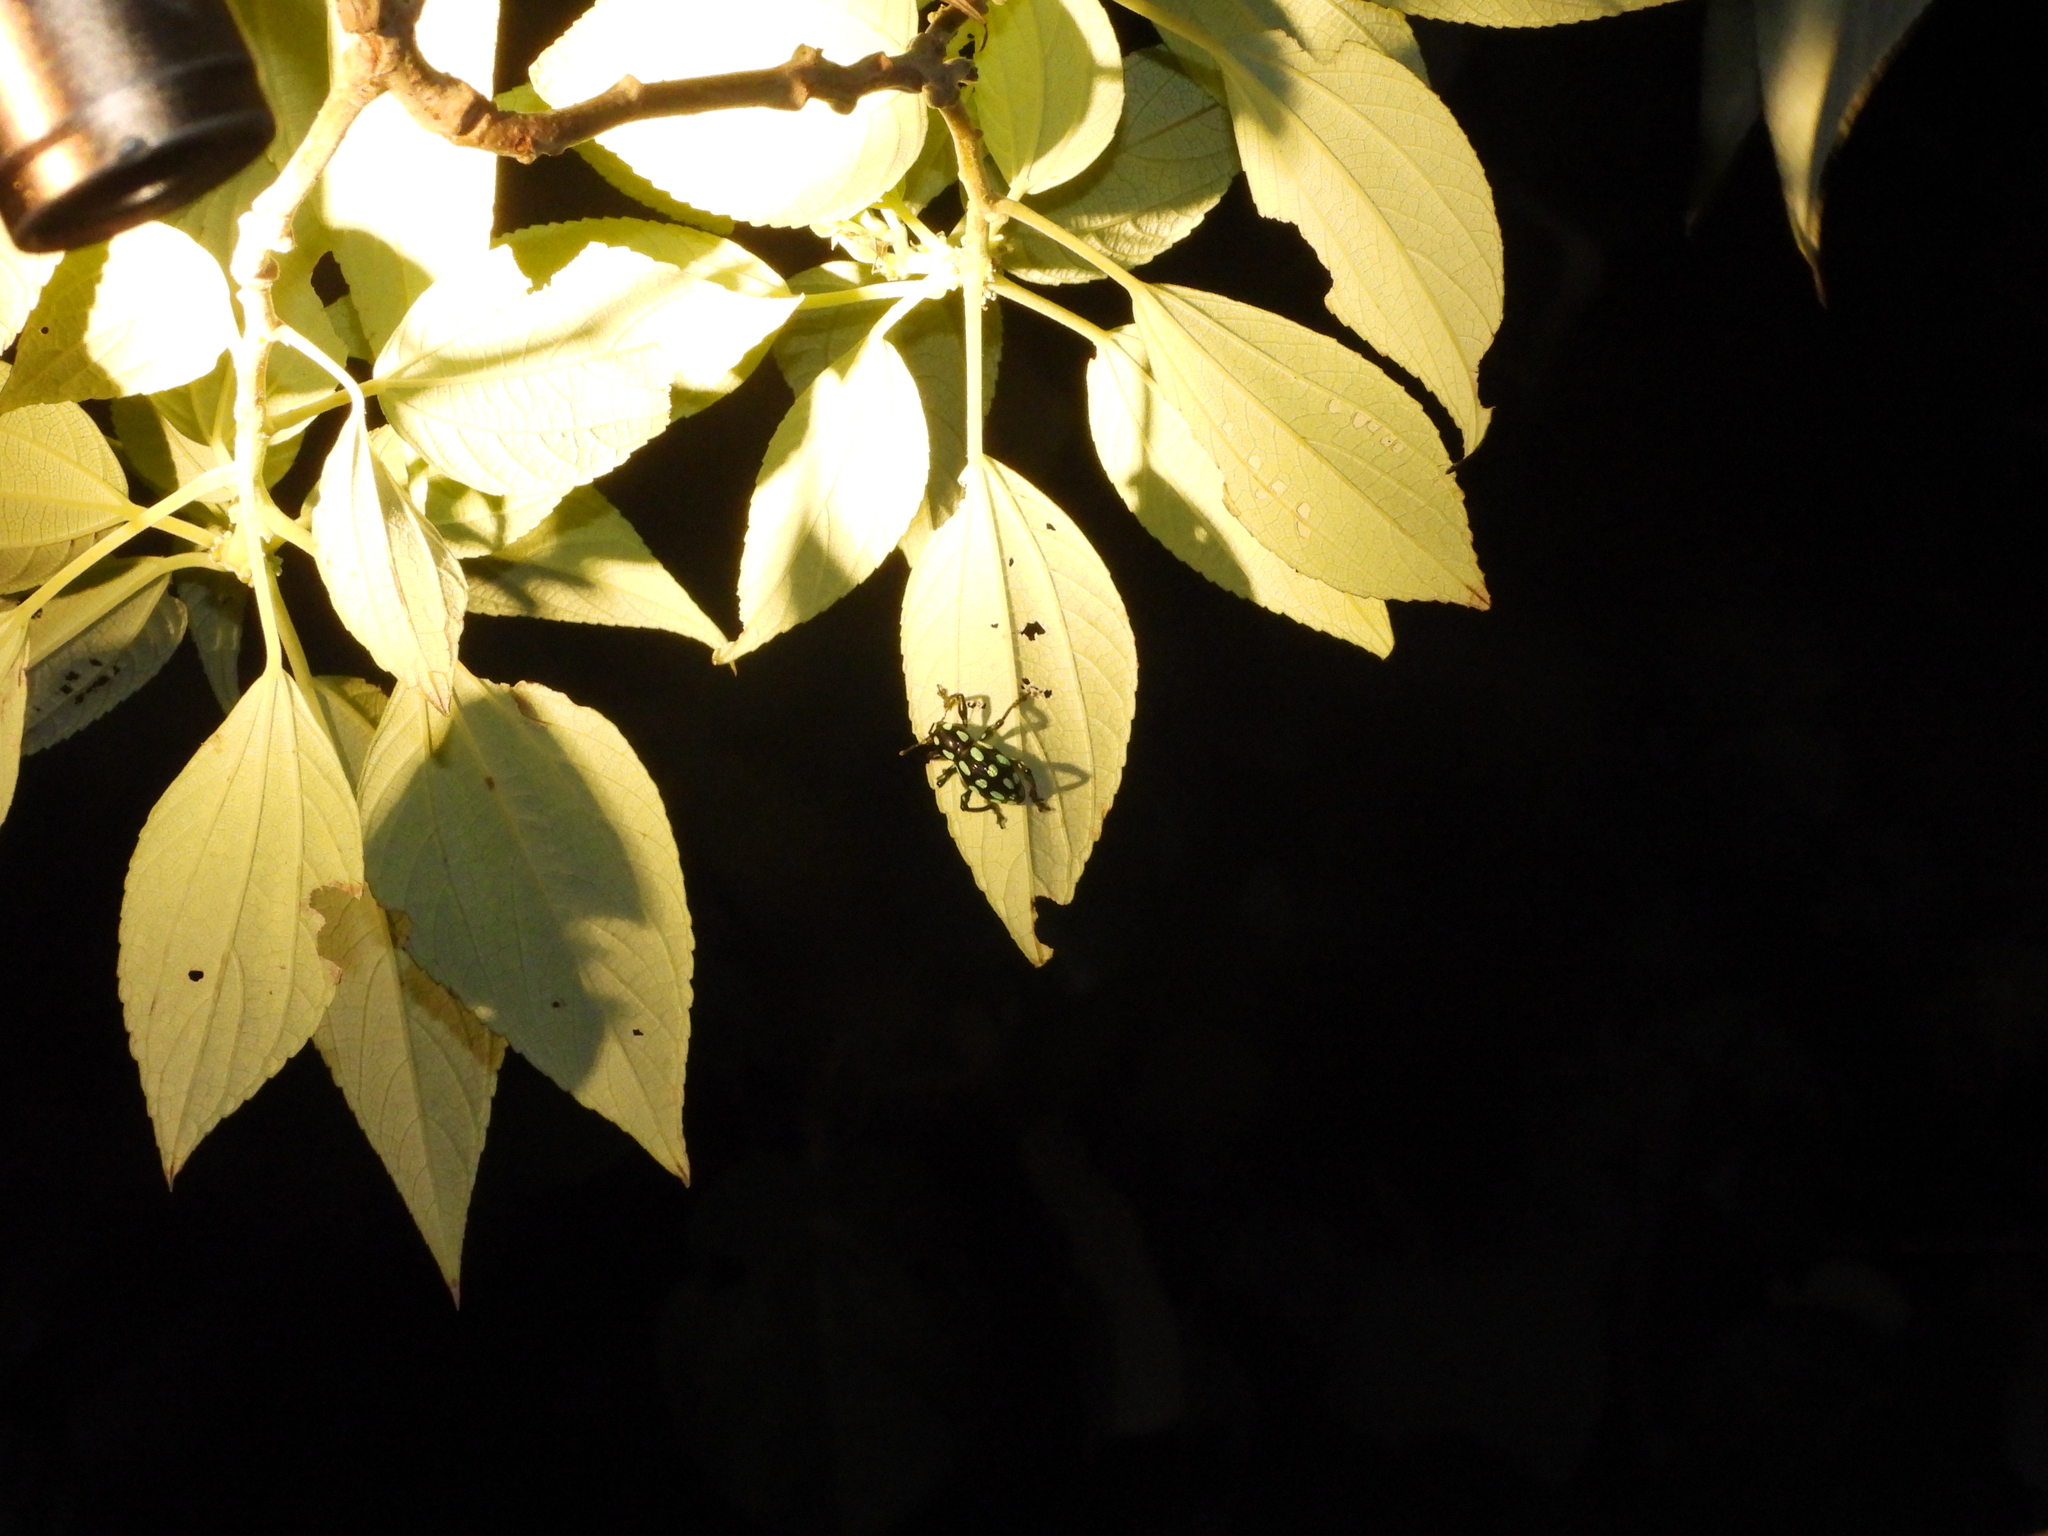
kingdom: Animalia
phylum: Arthropoda
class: Insecta
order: Coleoptera
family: Curculionidae
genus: Pachyrhynchus
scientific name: Pachyrhynchus tobafolius
